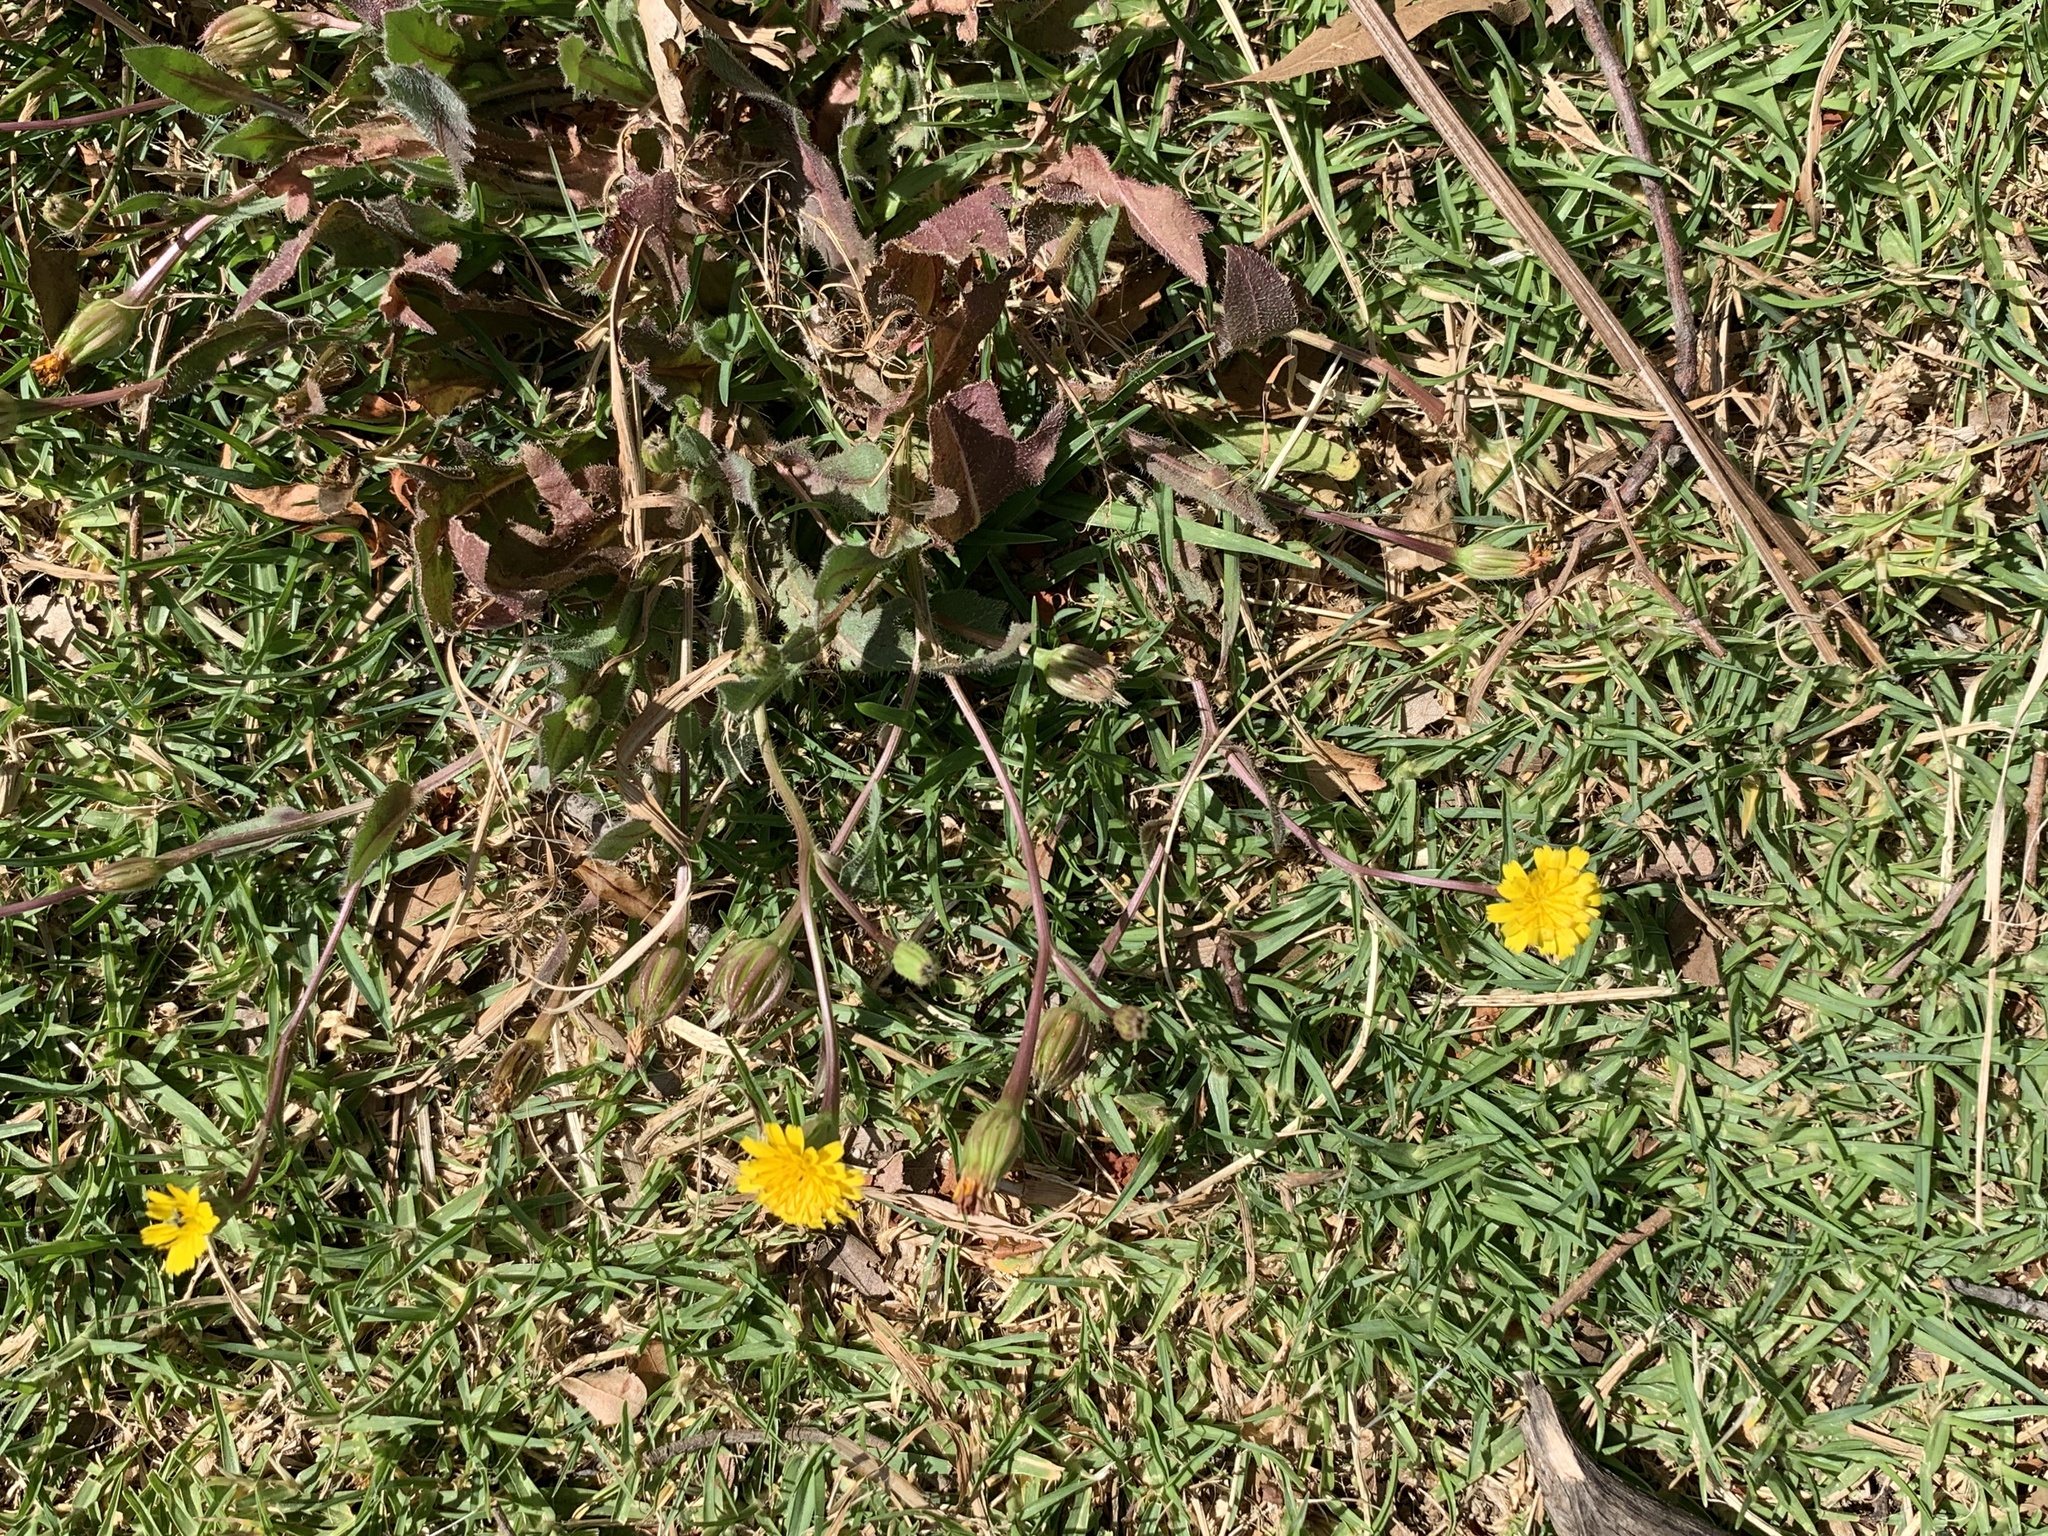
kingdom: Plantae
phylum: Tracheophyta
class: Magnoliopsida
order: Asterales
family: Asteraceae
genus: Hedypnois
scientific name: Hedypnois rhagadioloides
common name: Cretan weed
